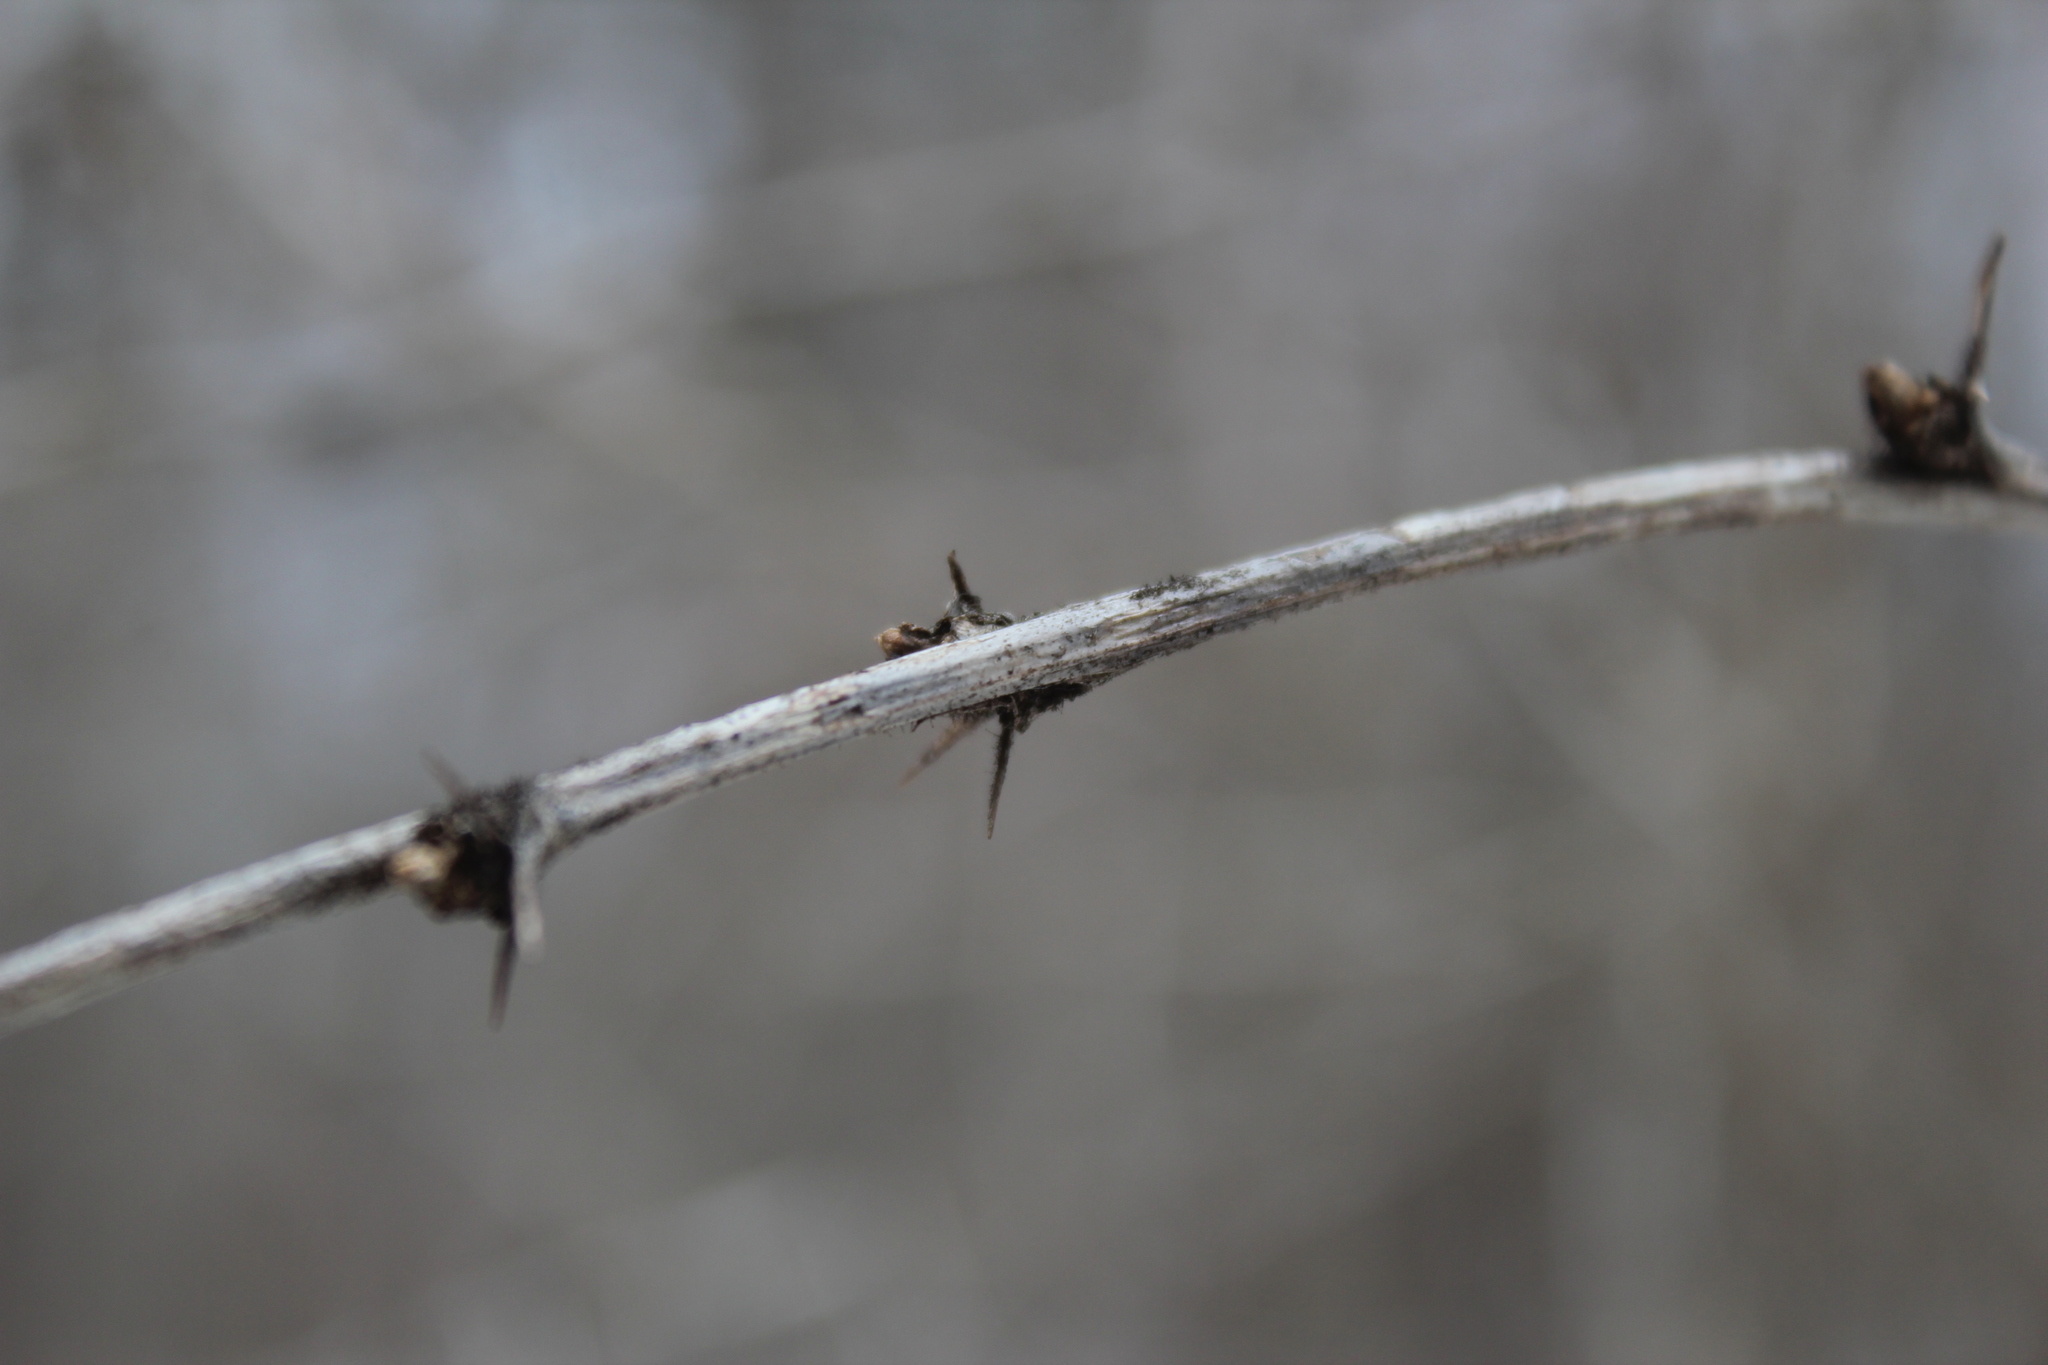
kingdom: Plantae
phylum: Tracheophyta
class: Magnoliopsida
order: Ranunculales
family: Berberidaceae
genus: Berberis
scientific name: Berberis vulgaris
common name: Barberry
